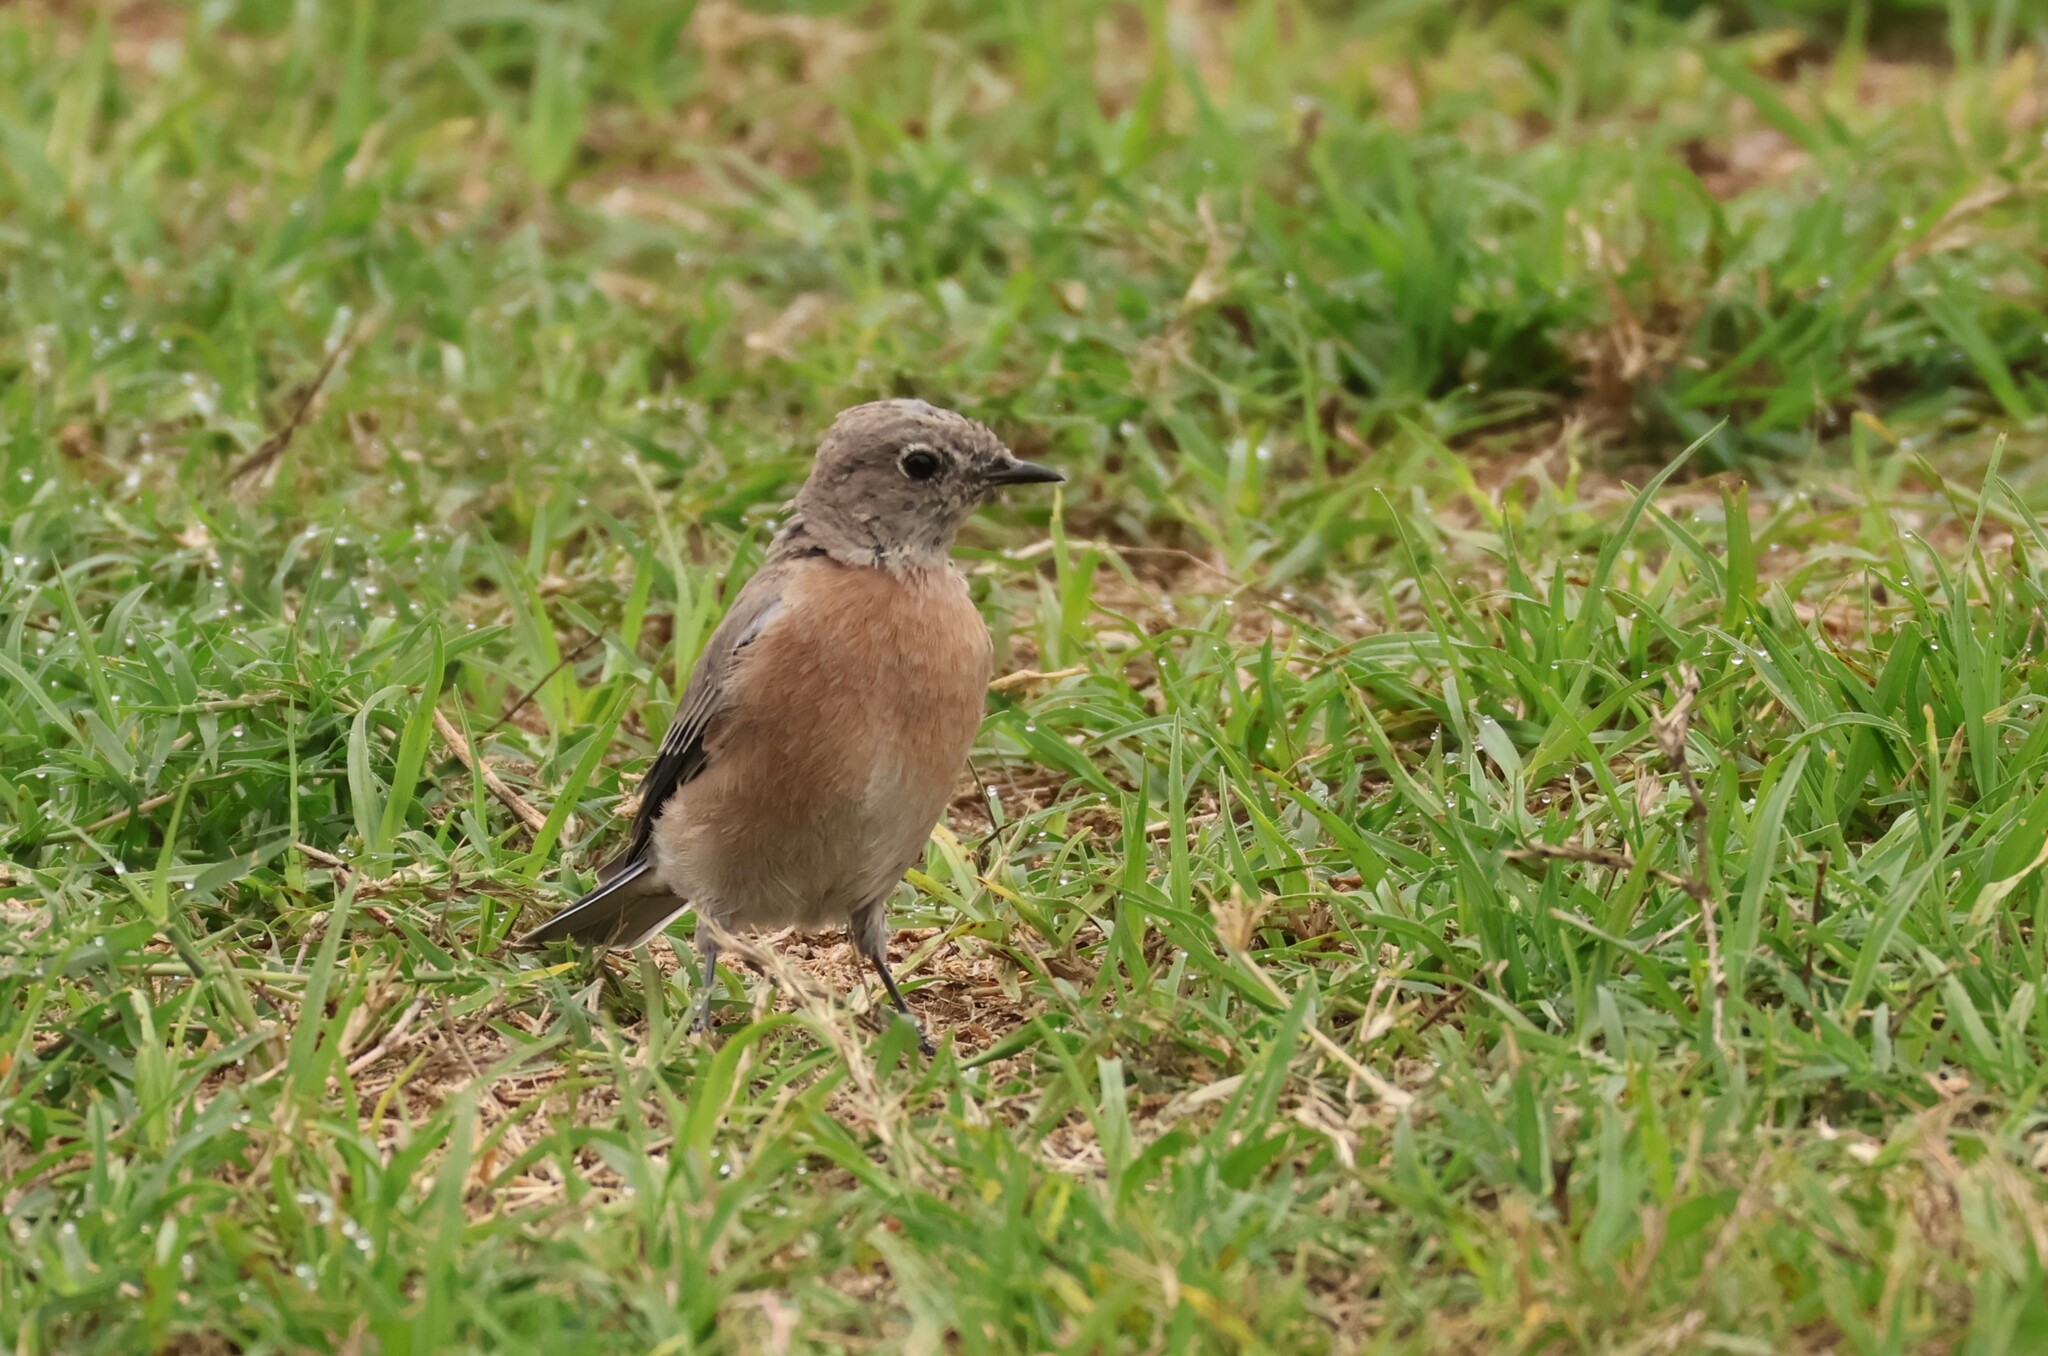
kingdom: Animalia
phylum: Chordata
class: Aves
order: Passeriformes
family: Turdidae
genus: Sialia
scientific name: Sialia mexicana
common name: Western bluebird
